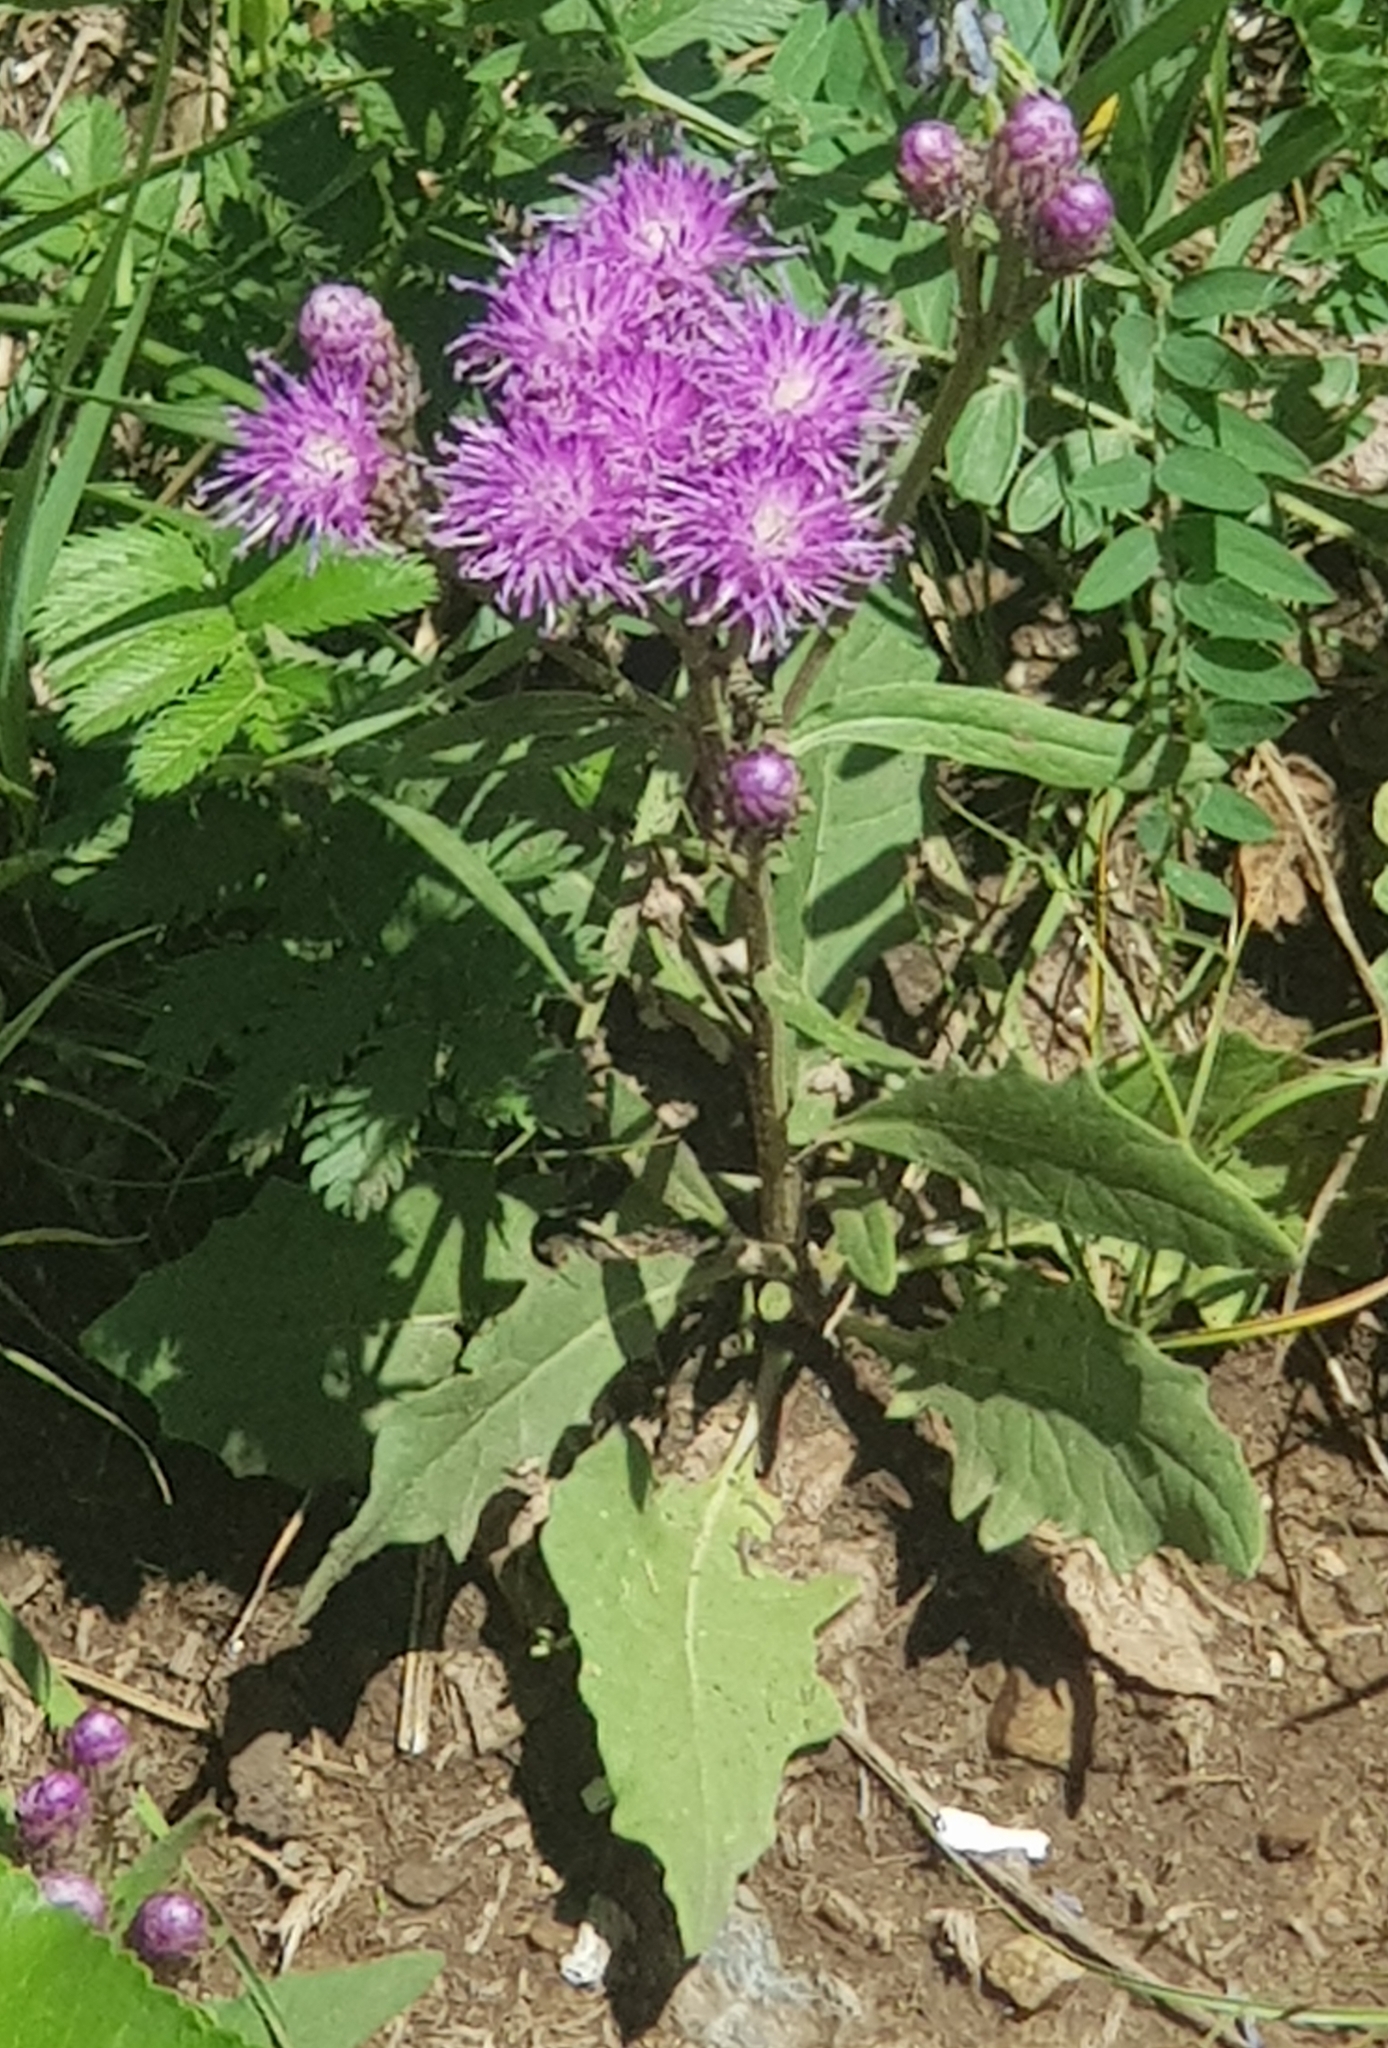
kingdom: Plantae
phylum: Tracheophyta
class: Magnoliopsida
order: Asterales
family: Asteraceae
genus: Saussurea
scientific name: Saussurea amara
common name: Alberta sawwort
